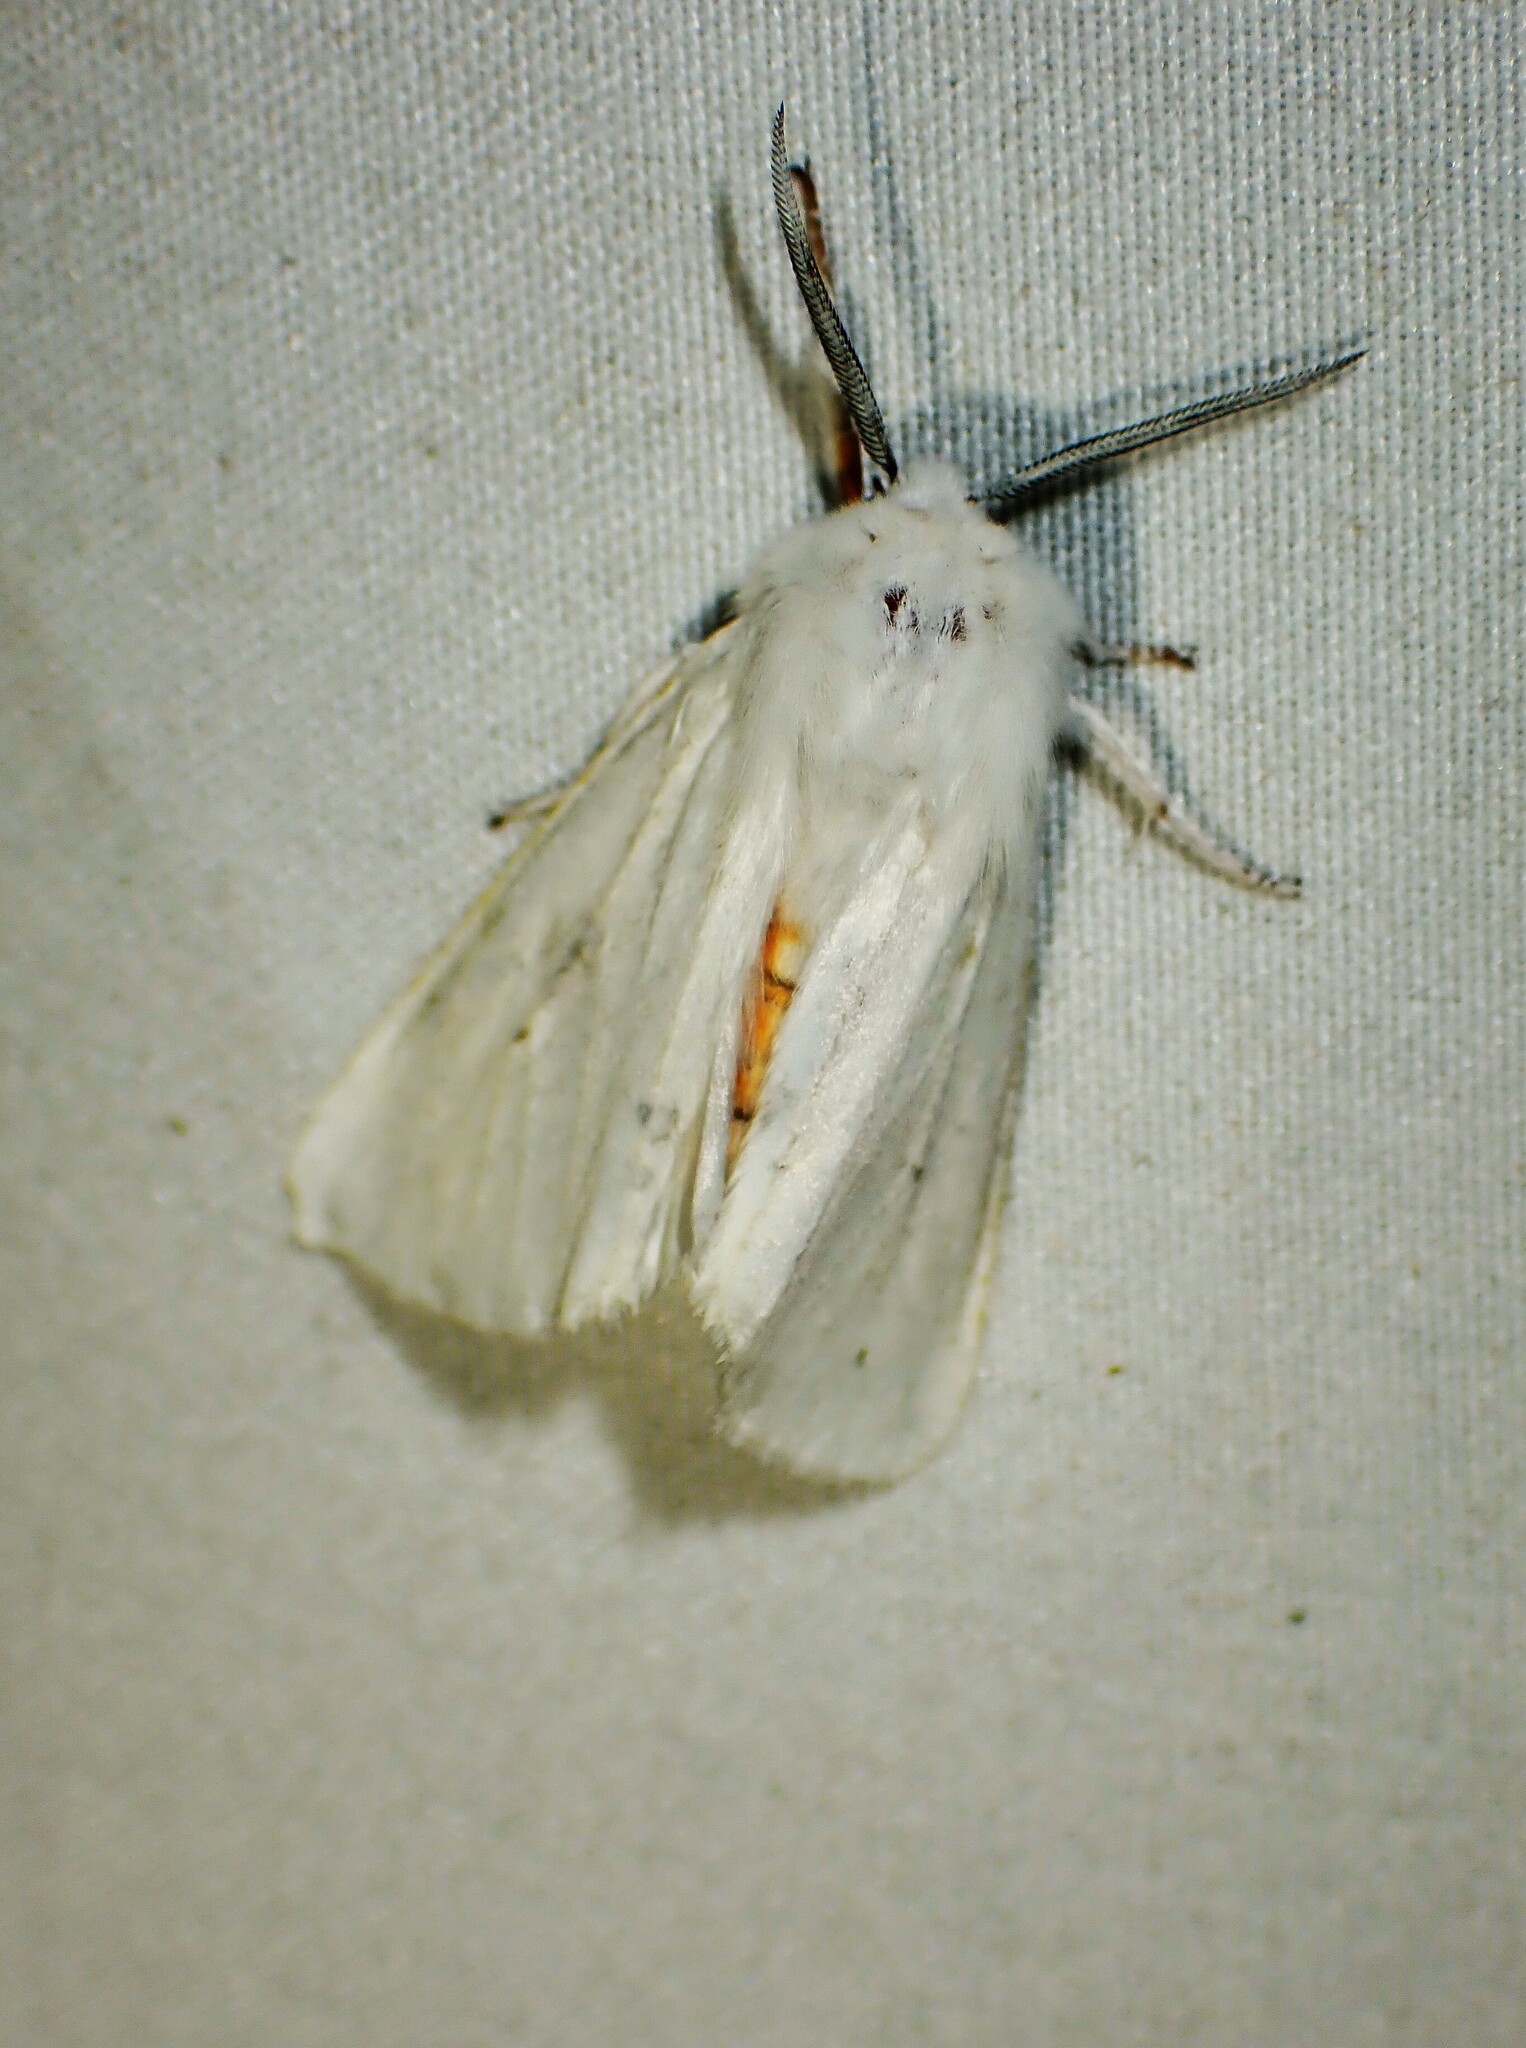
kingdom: Animalia
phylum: Arthropoda
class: Insecta
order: Lepidoptera
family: Erebidae
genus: Spilosoma
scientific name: Spilosoma virginica
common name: Virginia tiger moth
